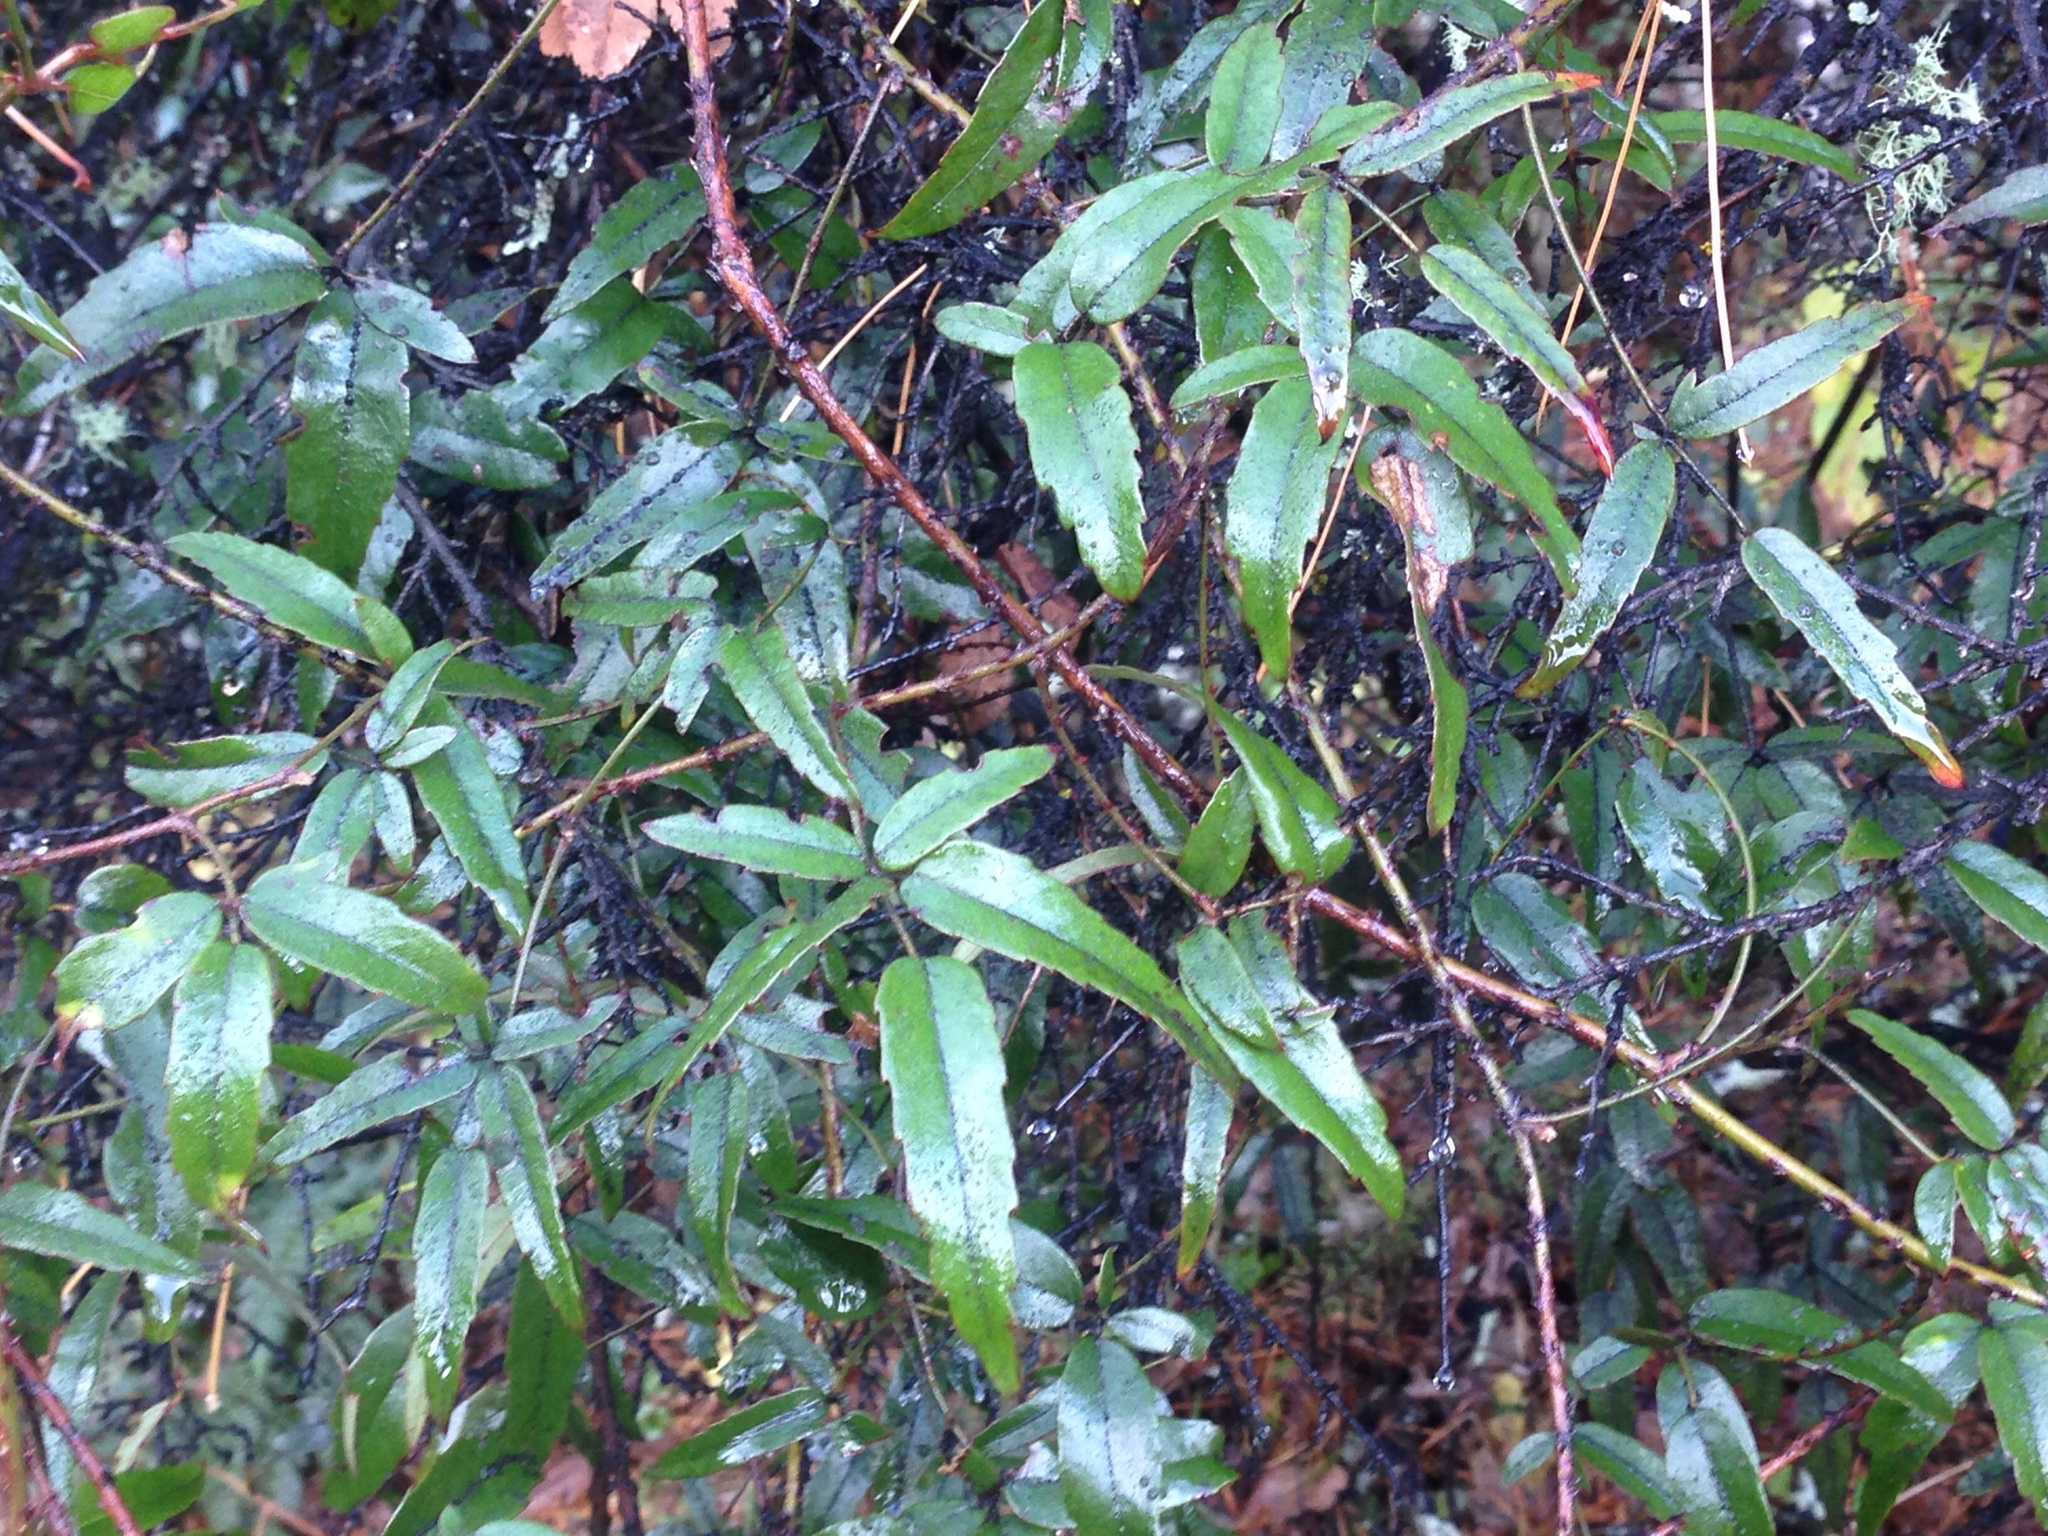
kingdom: Plantae
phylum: Tracheophyta
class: Magnoliopsida
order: Rosales
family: Rosaceae
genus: Rubus
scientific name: Rubus schmidelioides
